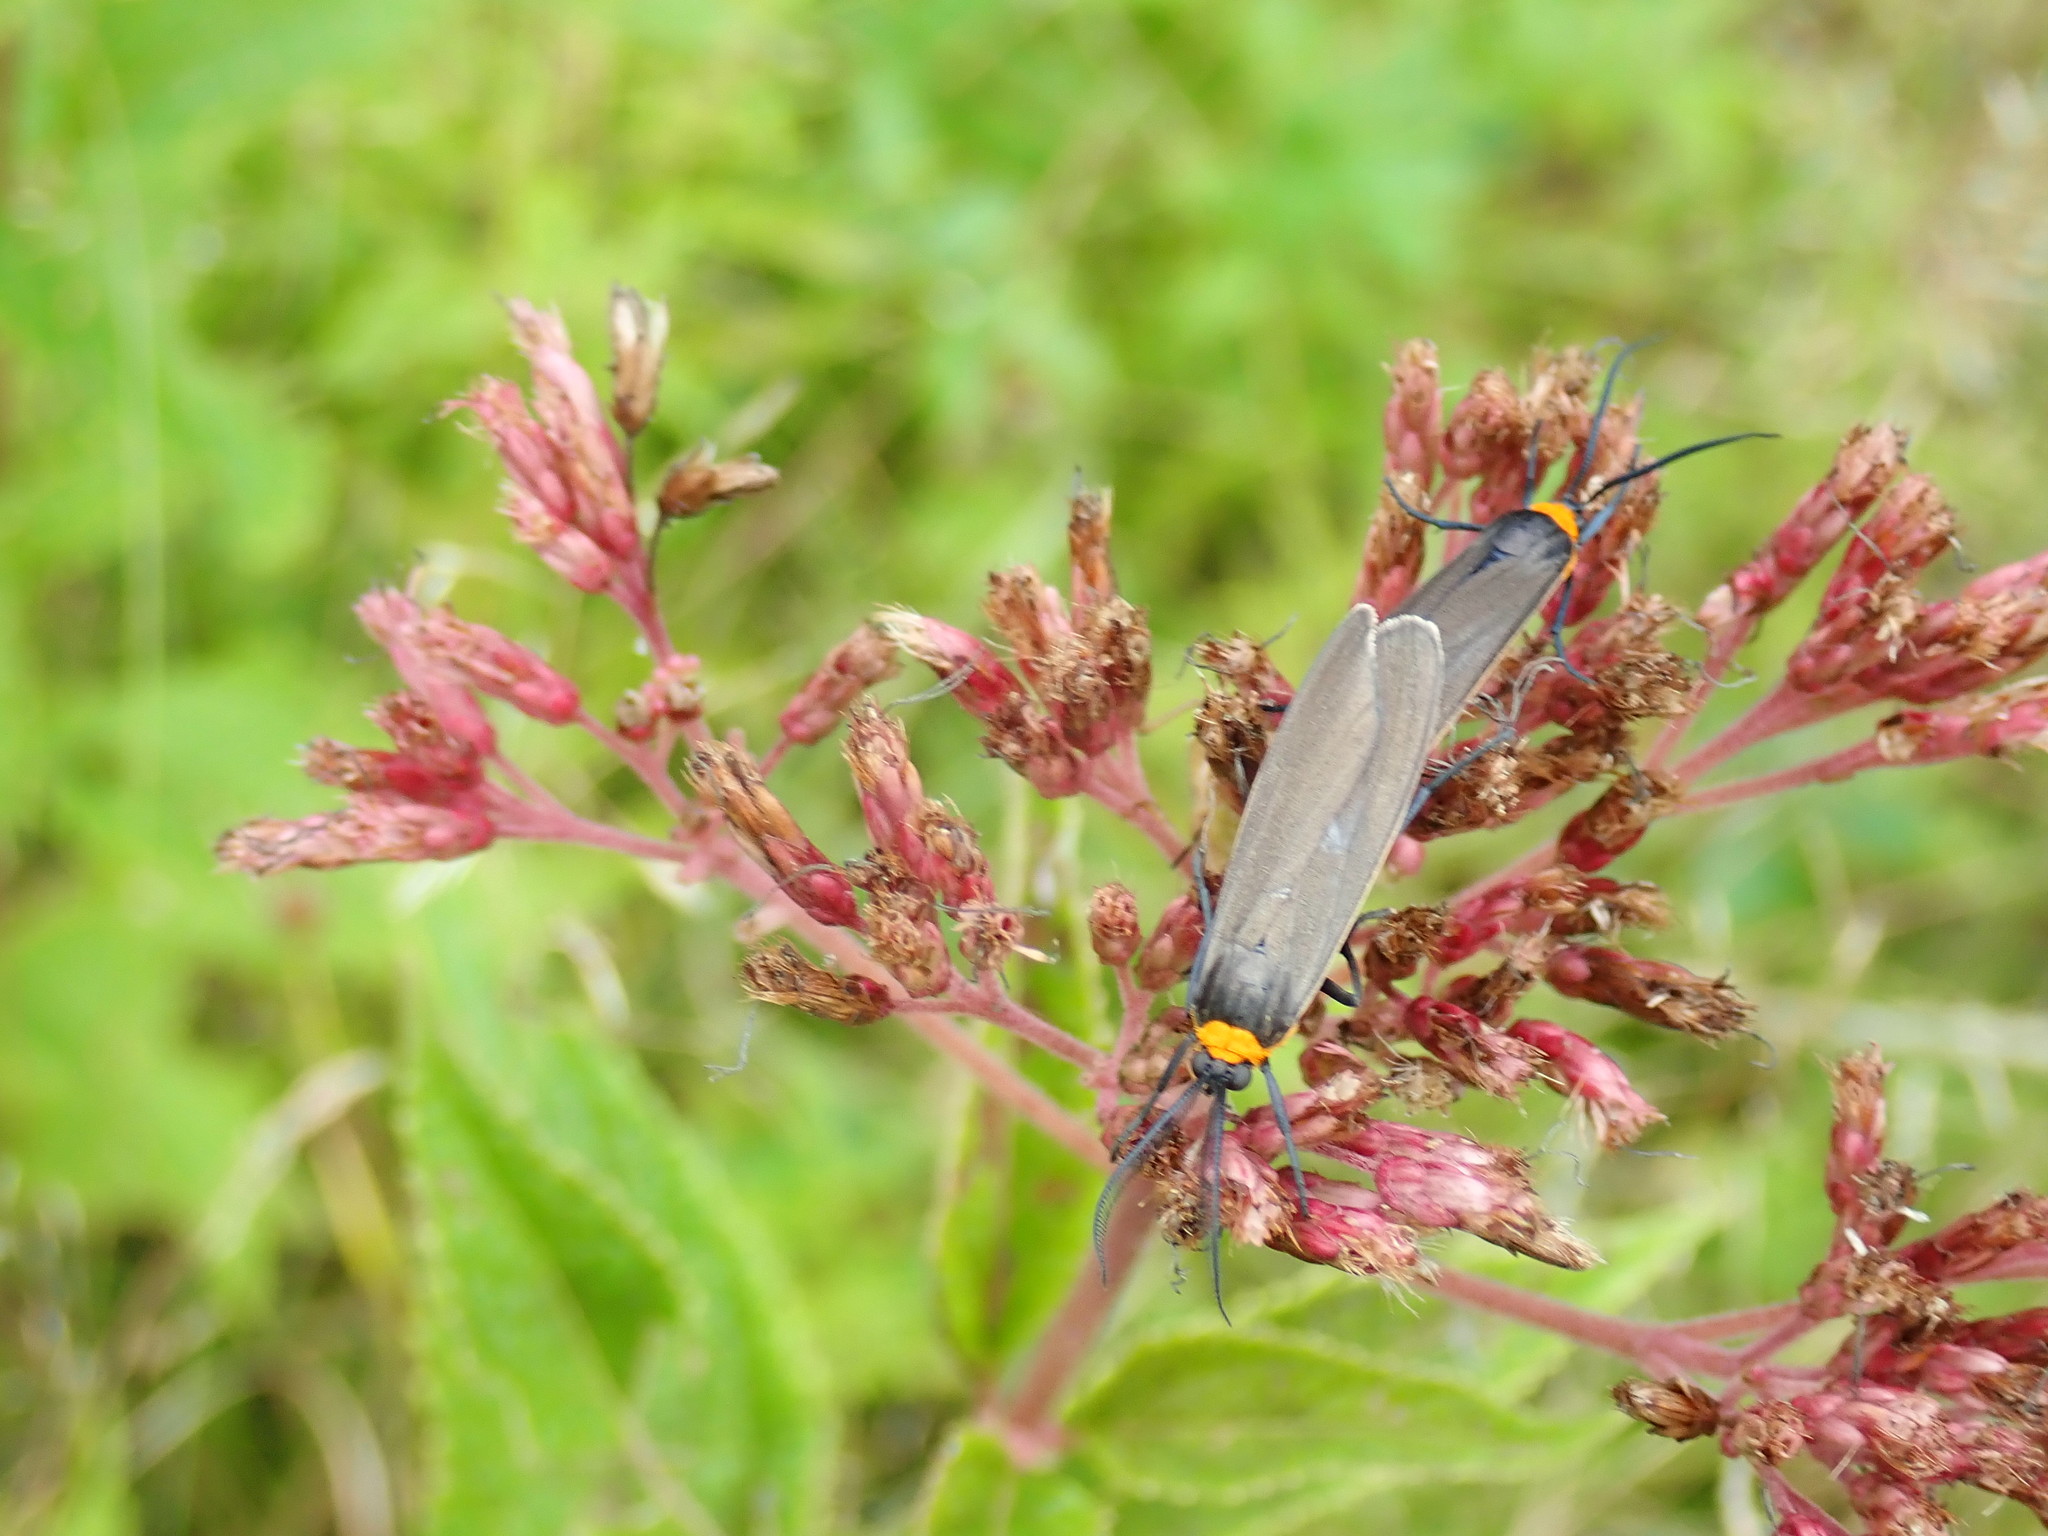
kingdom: Animalia
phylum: Arthropoda
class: Insecta
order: Lepidoptera
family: Erebidae
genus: Cisseps
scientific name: Cisseps fulvicollis
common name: Yellow-collared scape moth
